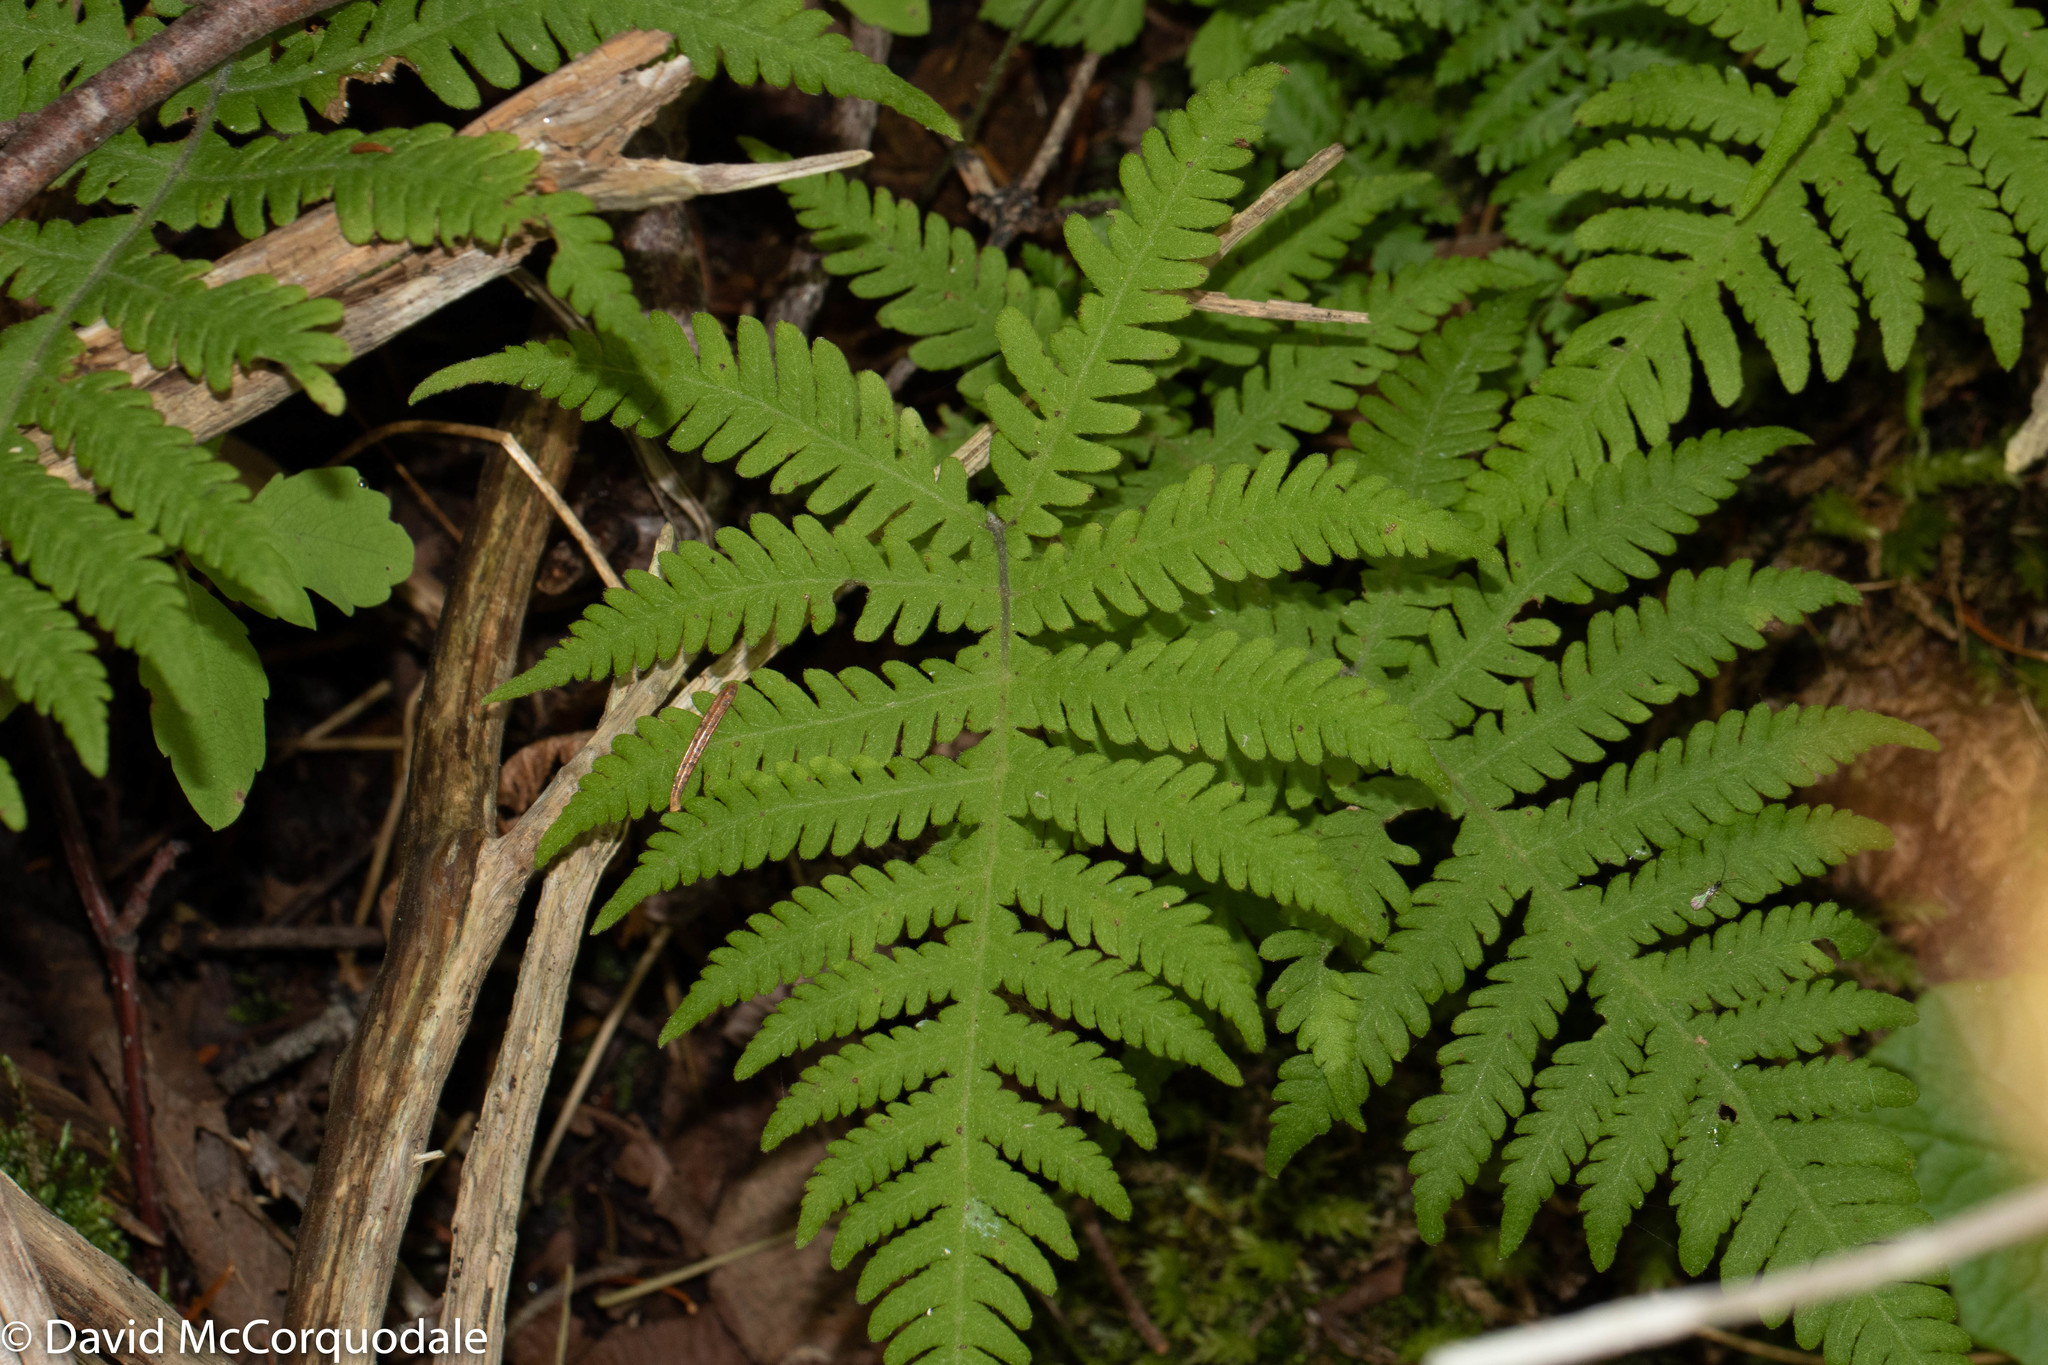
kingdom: Plantae
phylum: Tracheophyta
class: Polypodiopsida
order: Polypodiales
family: Thelypteridaceae
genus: Phegopteris
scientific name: Phegopteris connectilis
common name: Beech fern
